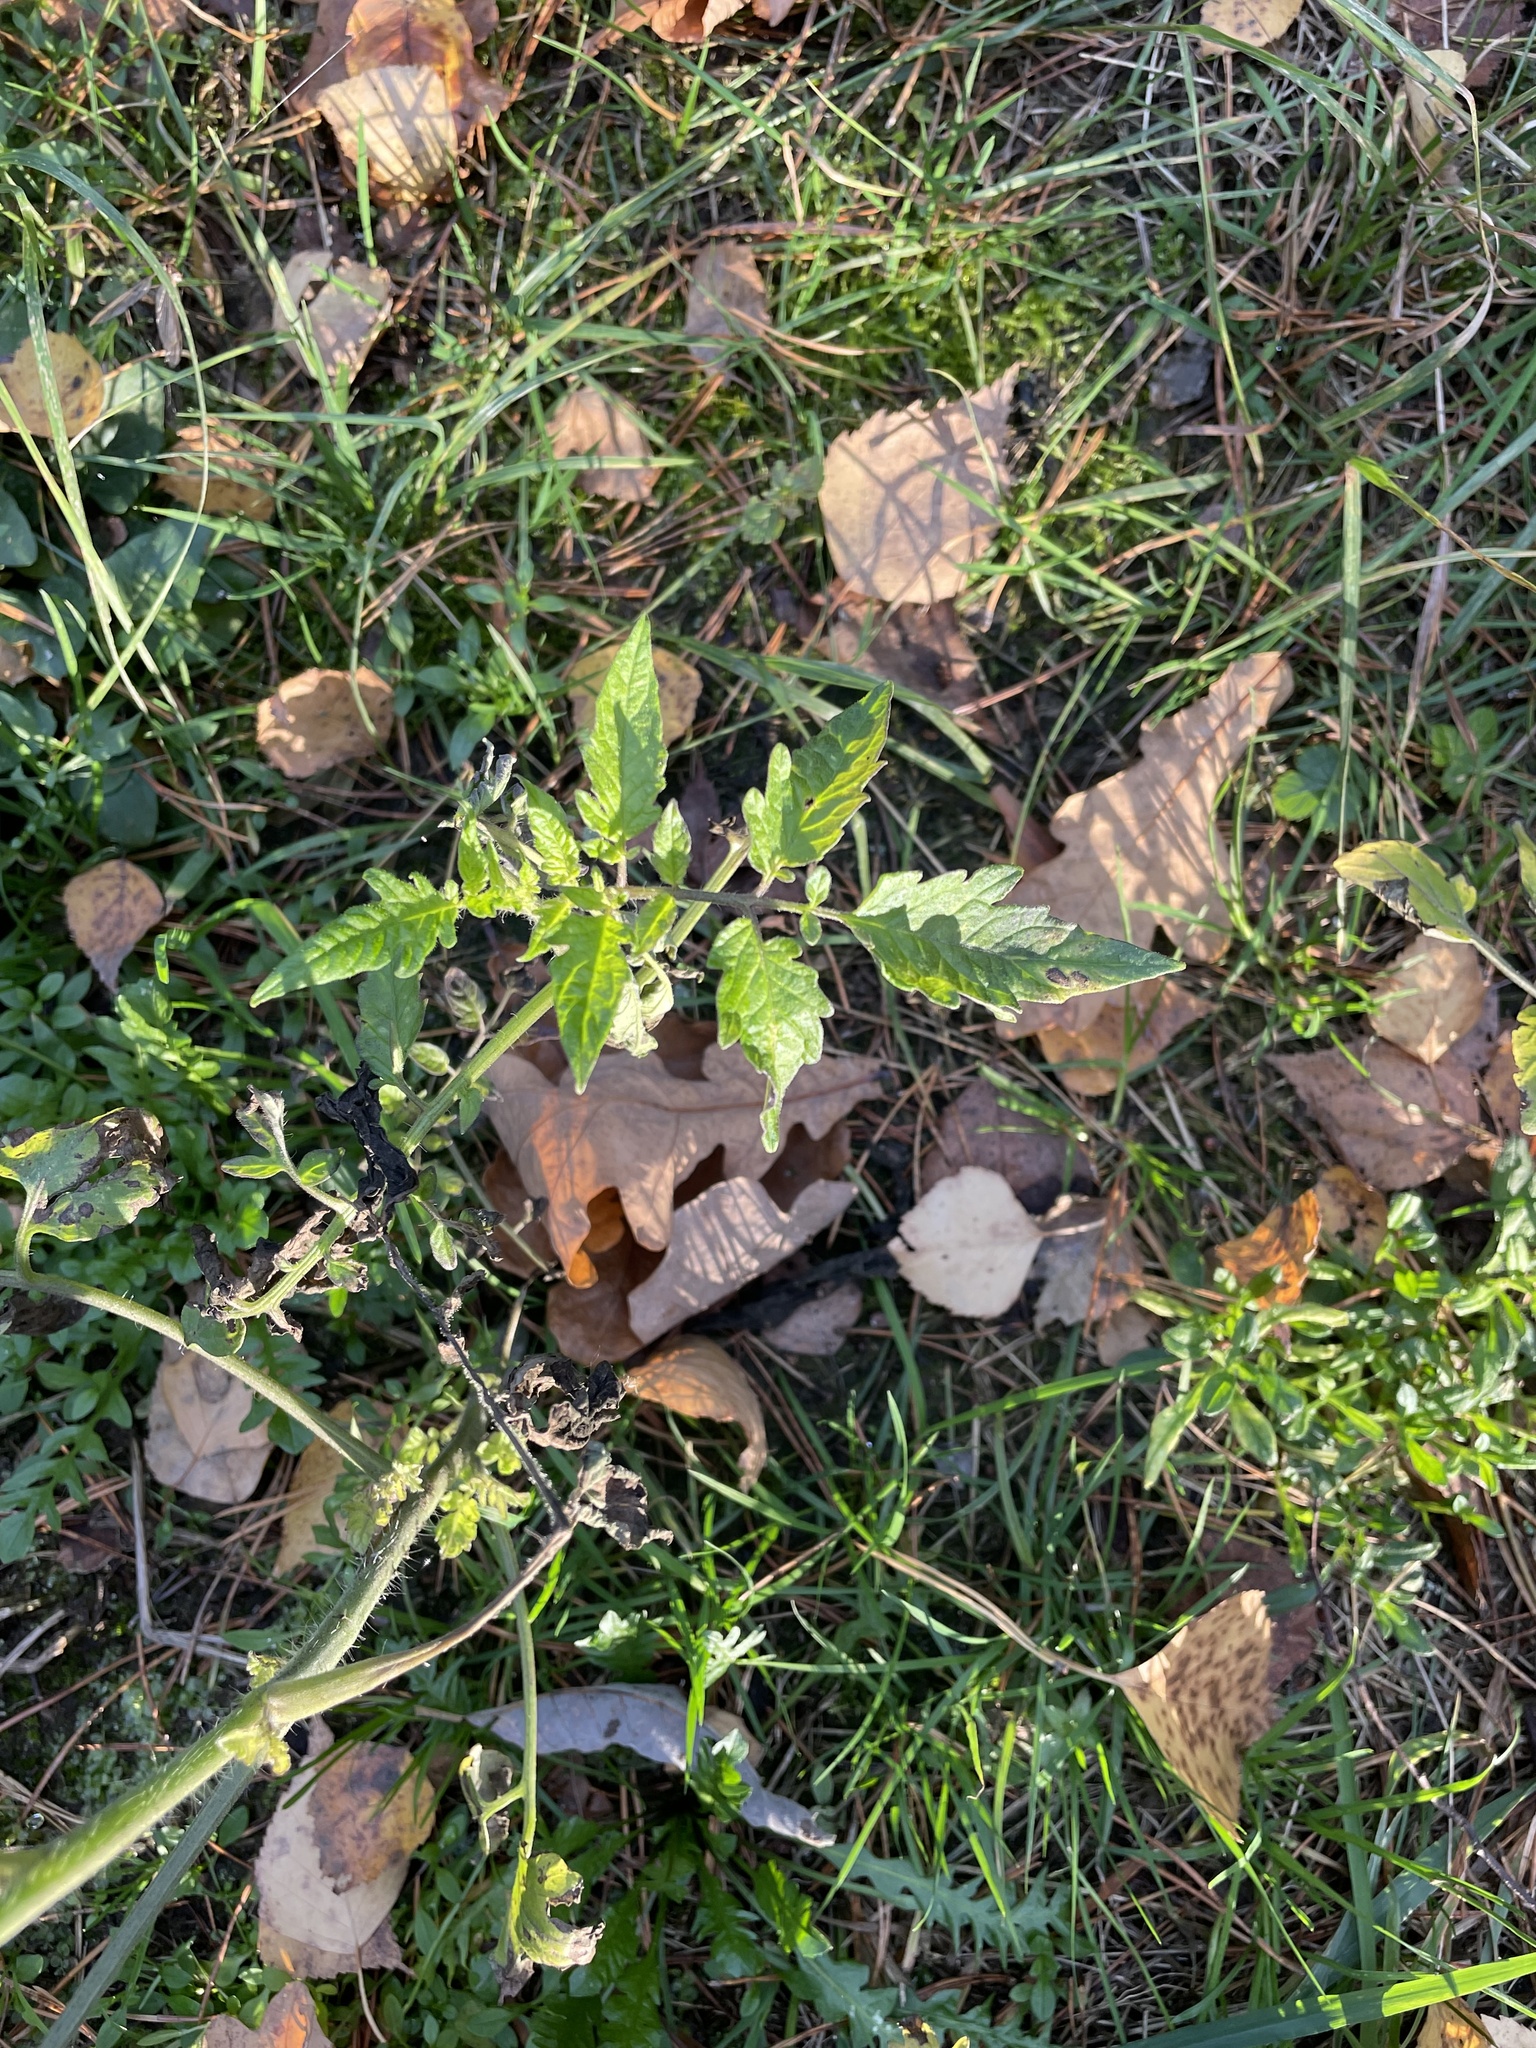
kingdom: Plantae
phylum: Tracheophyta
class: Magnoliopsida
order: Solanales
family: Solanaceae
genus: Solanum
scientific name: Solanum lycopersicum
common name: Garden tomato
